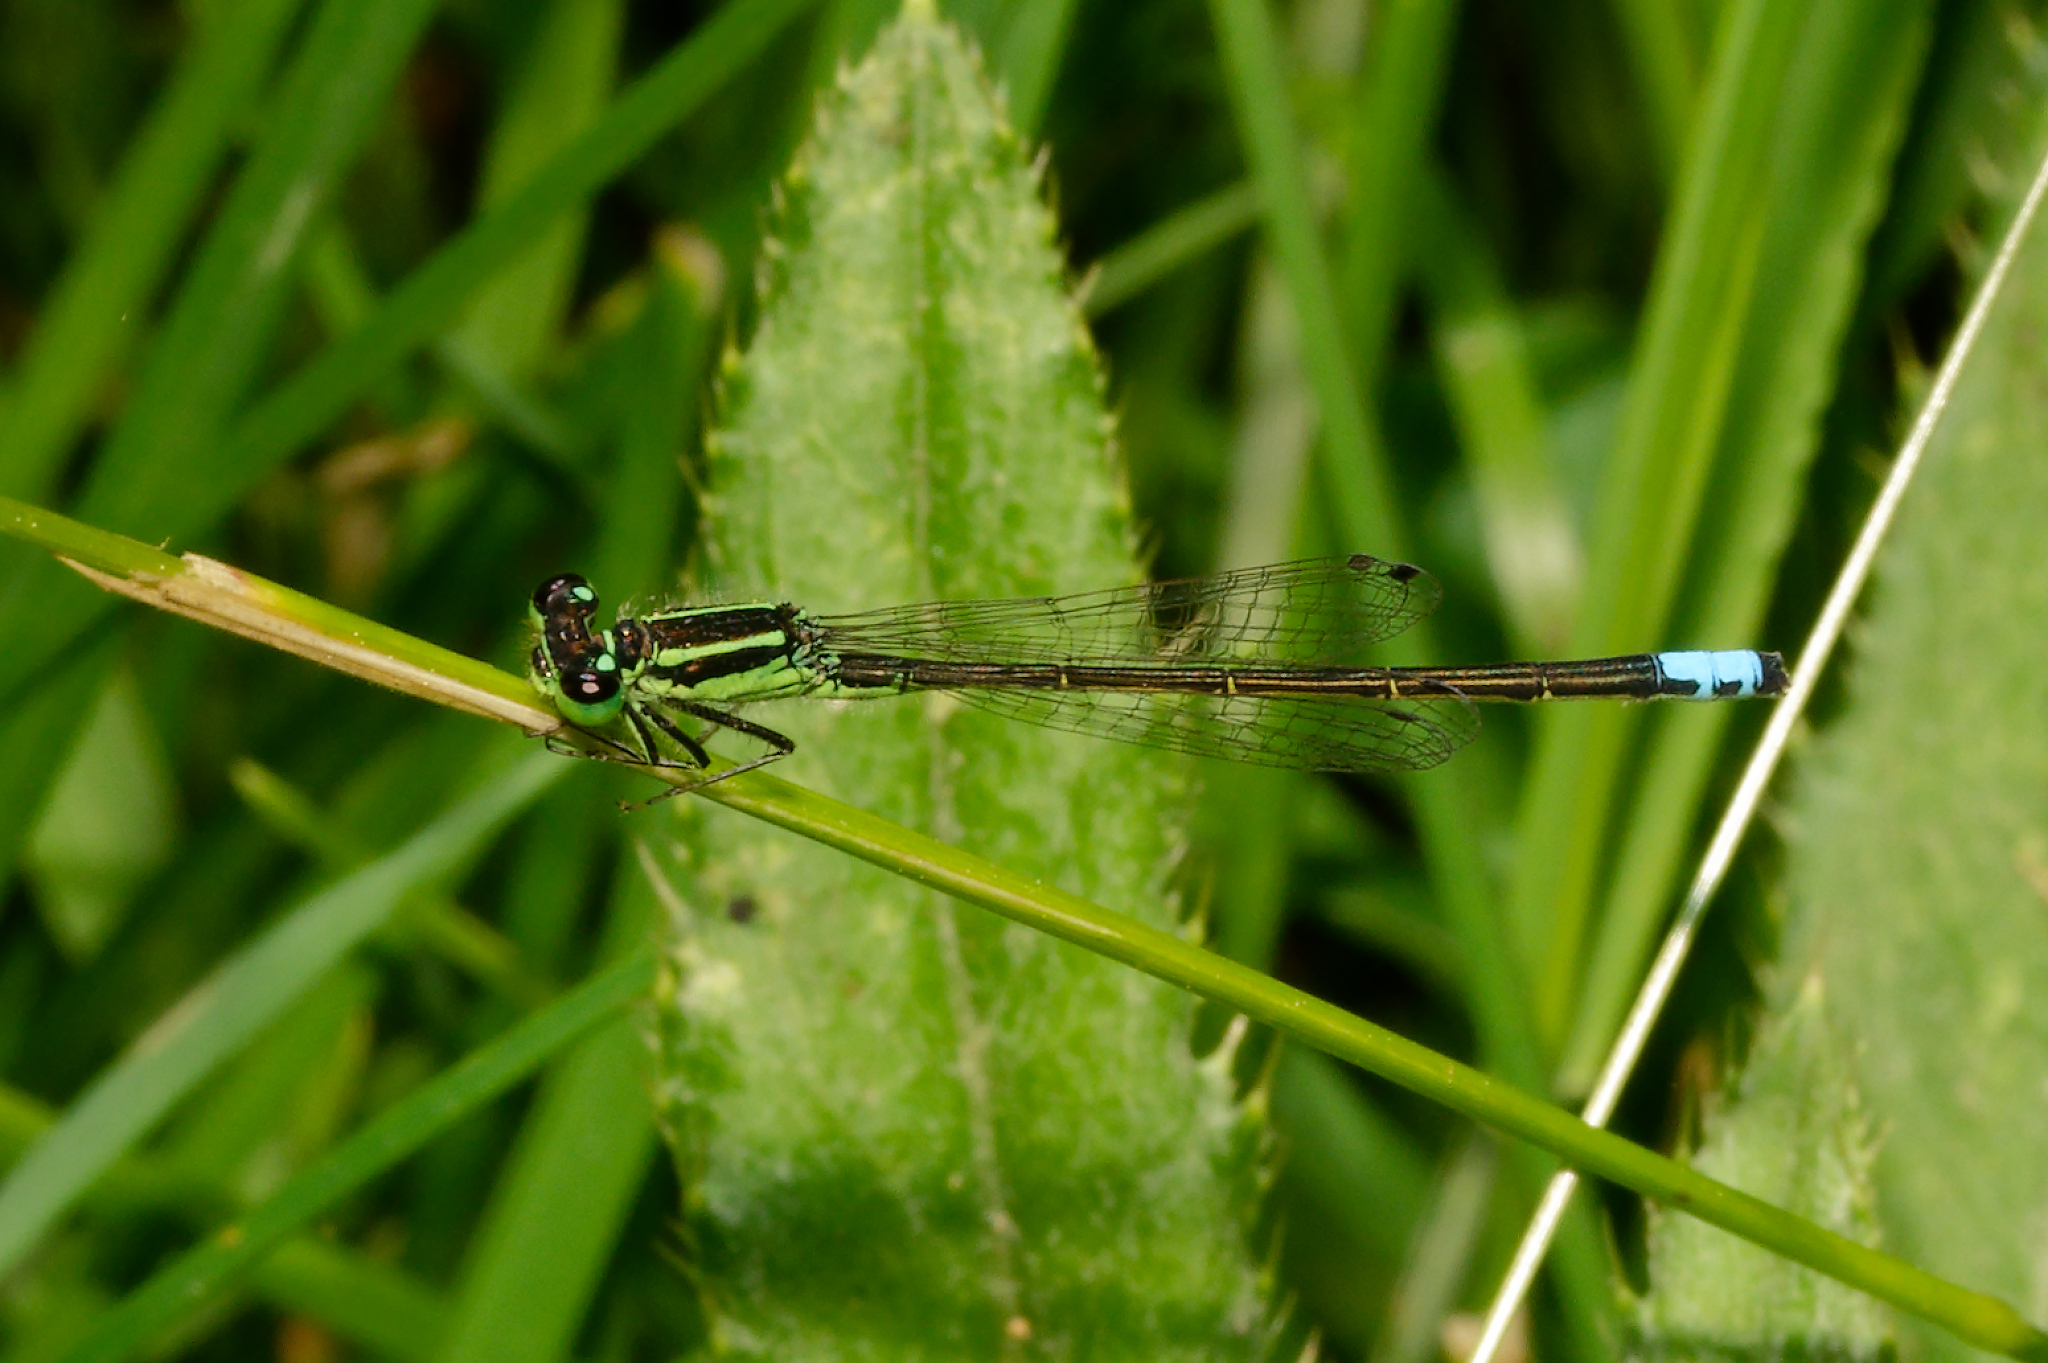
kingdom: Animalia
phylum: Arthropoda
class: Insecta
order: Odonata
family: Coenagrionidae
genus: Ischnura
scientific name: Ischnura verticalis
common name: Eastern forktail
